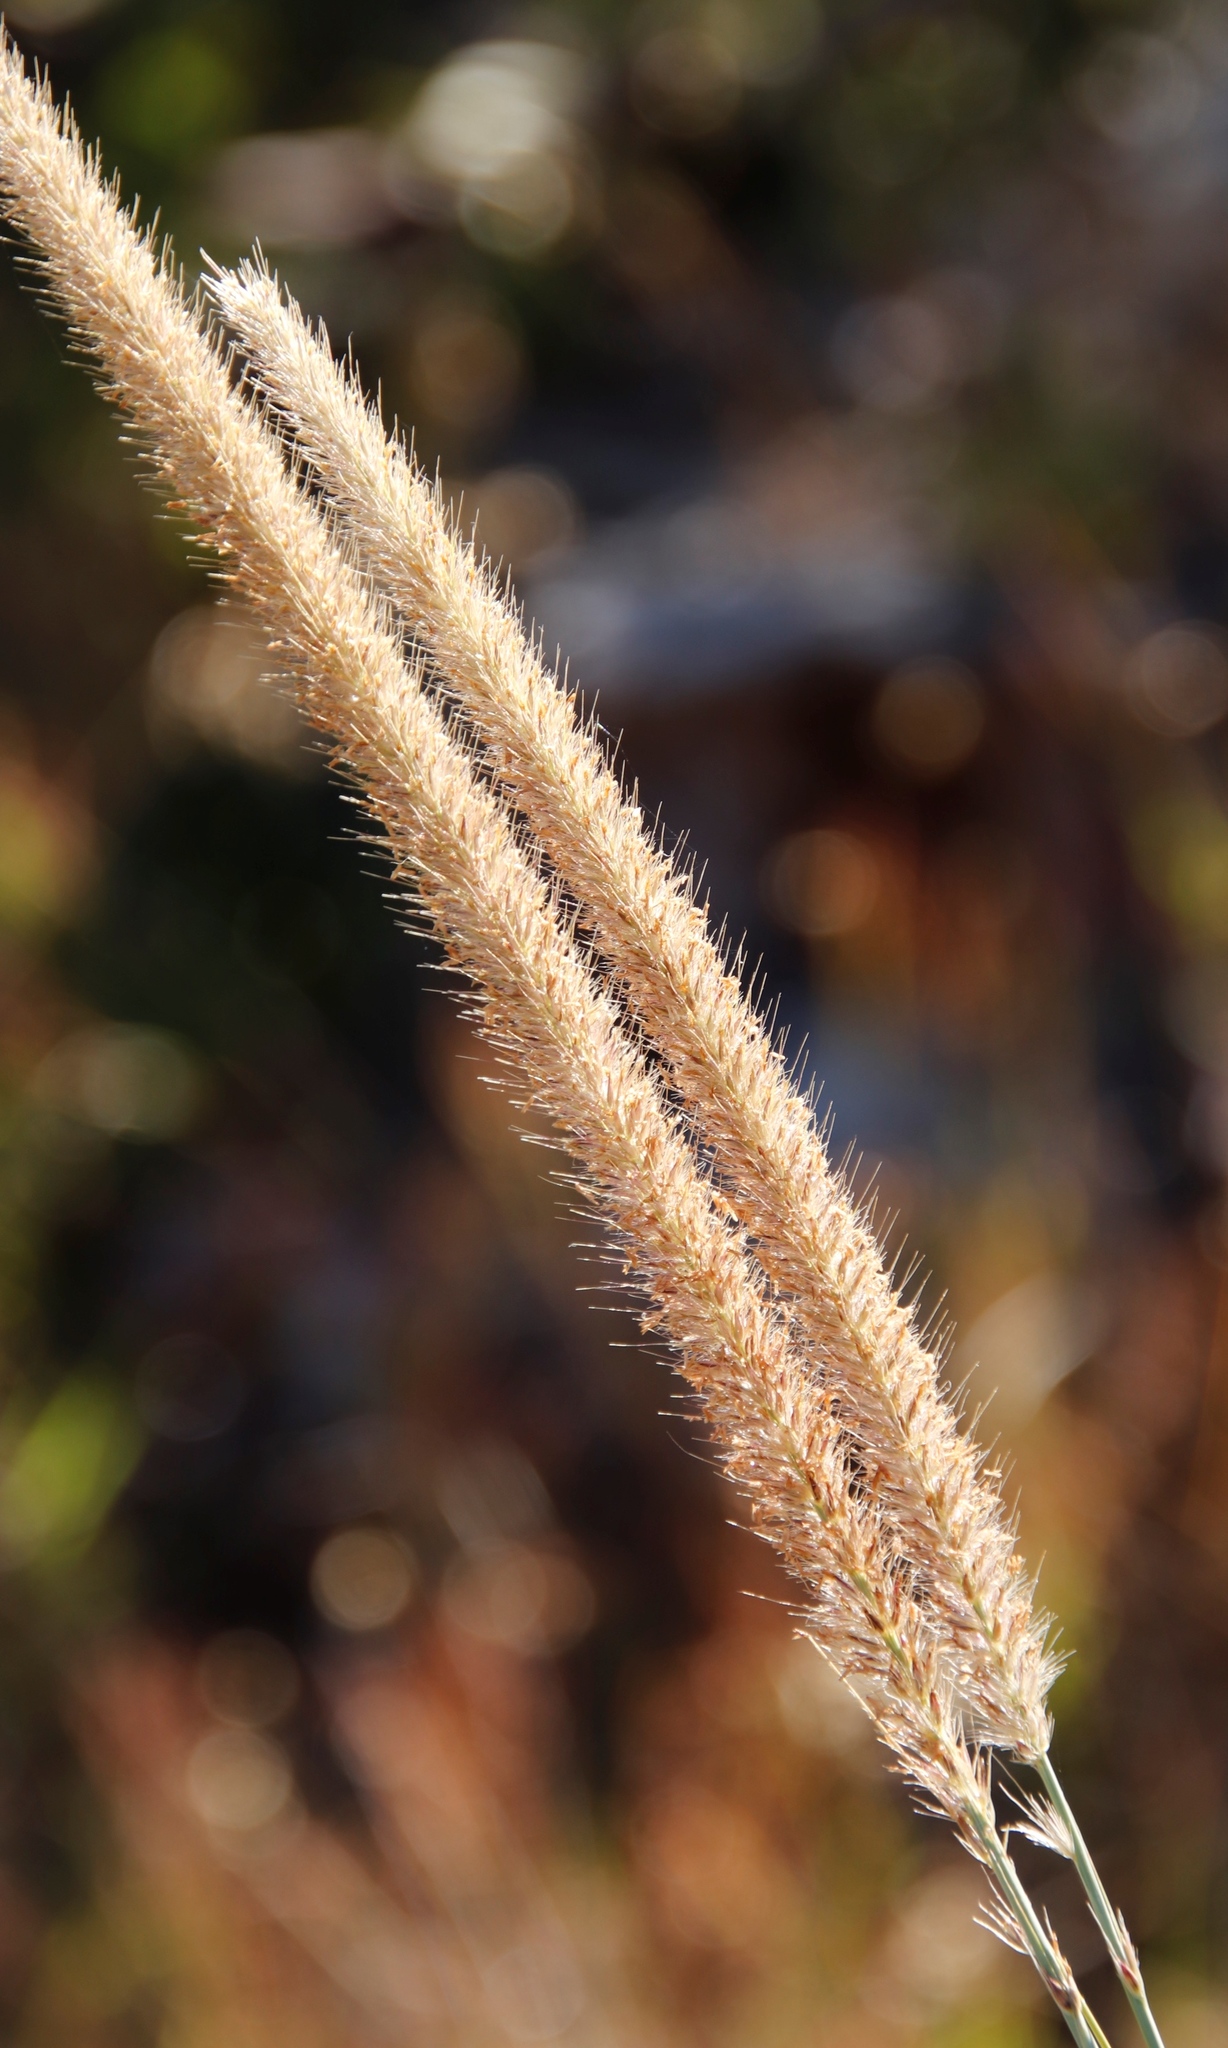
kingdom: Plantae
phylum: Tracheophyta
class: Liliopsida
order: Poales
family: Poaceae
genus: Cenchrus
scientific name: Cenchrus caudatus
